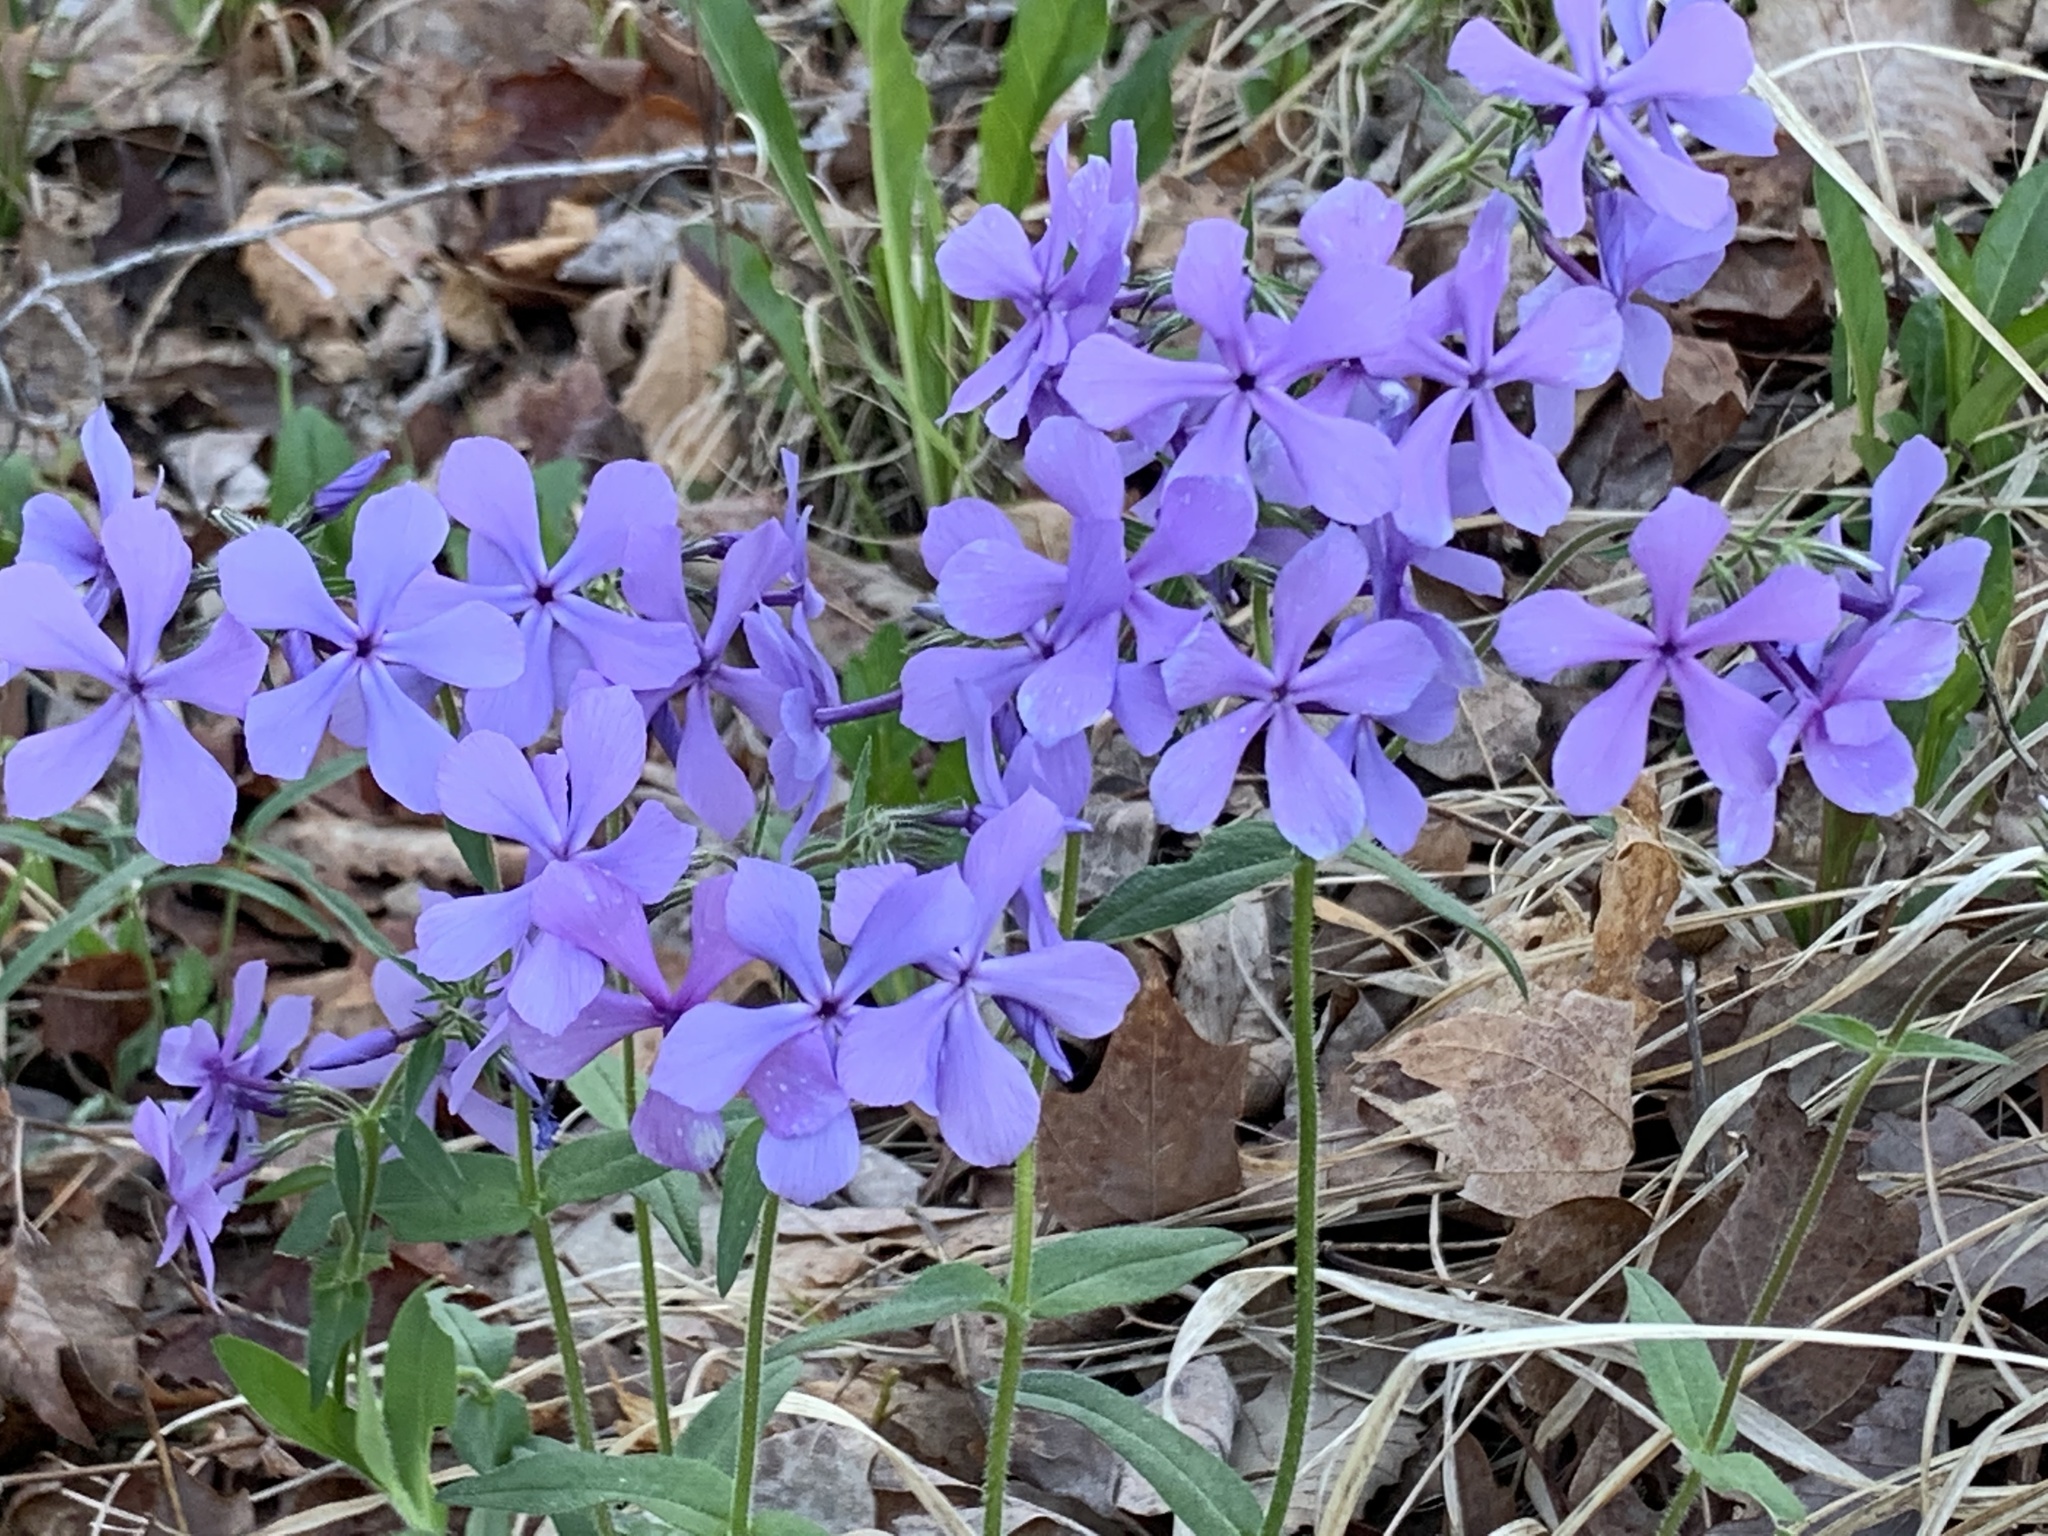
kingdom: Plantae
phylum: Tracheophyta
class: Magnoliopsida
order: Ericales
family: Polemoniaceae
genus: Phlox
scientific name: Phlox divaricata
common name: Blue phlox
